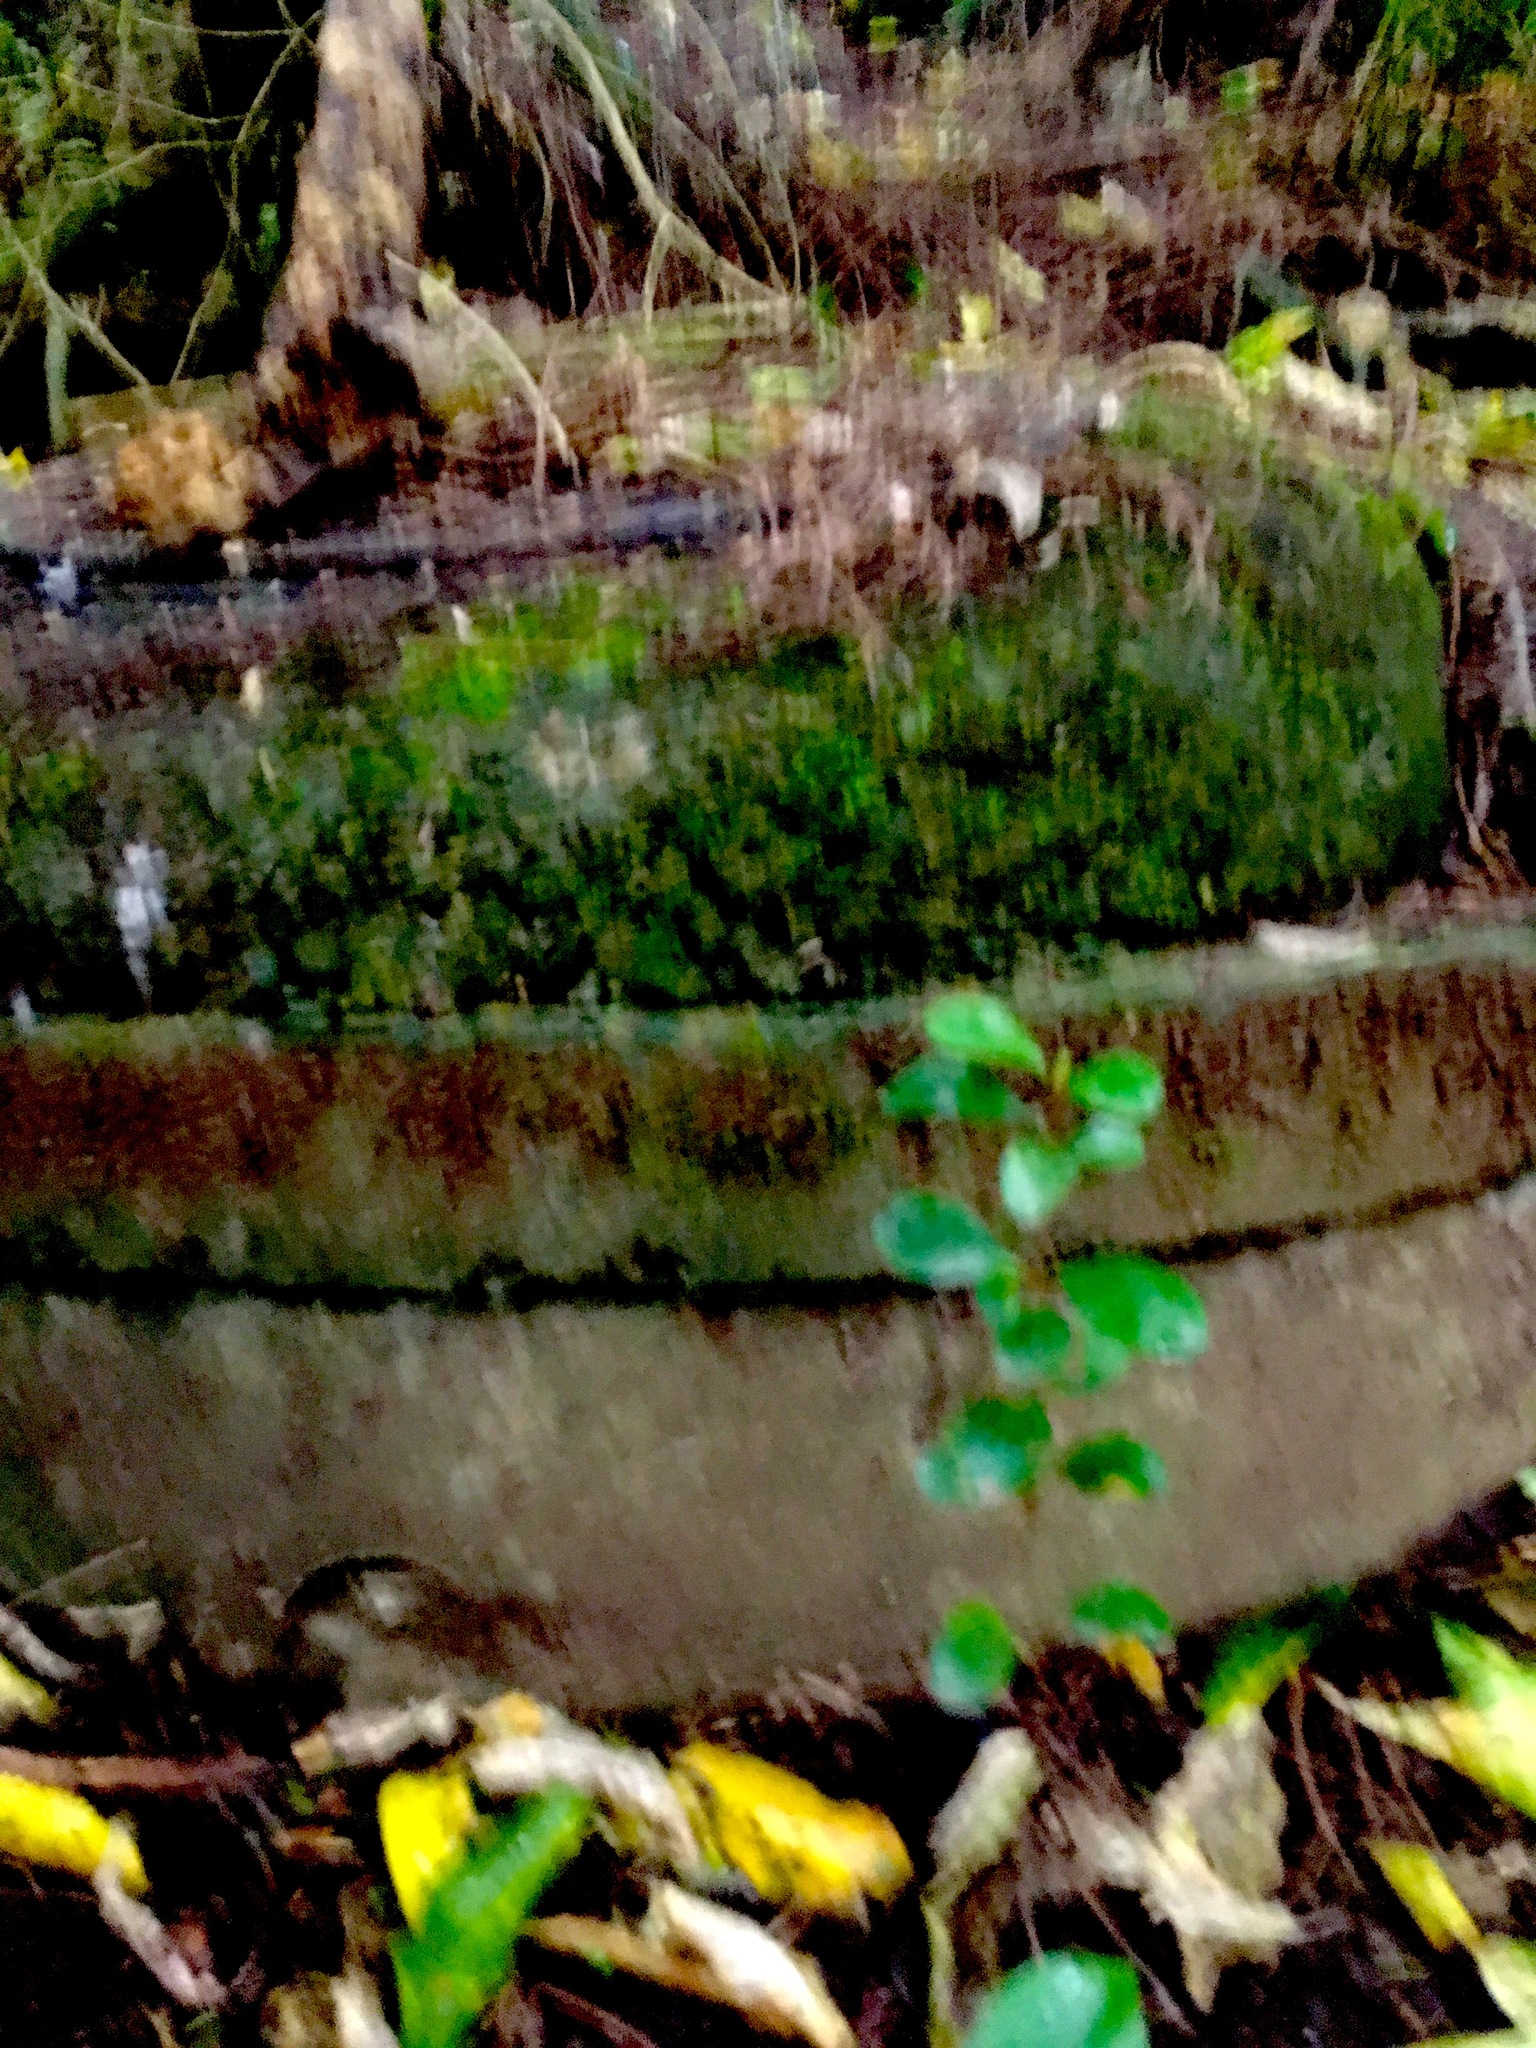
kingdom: Plantae
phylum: Tracheophyta
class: Magnoliopsida
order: Apiales
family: Pittosporaceae
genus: Pittosporum
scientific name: Pittosporum crassifolium
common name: Karo
